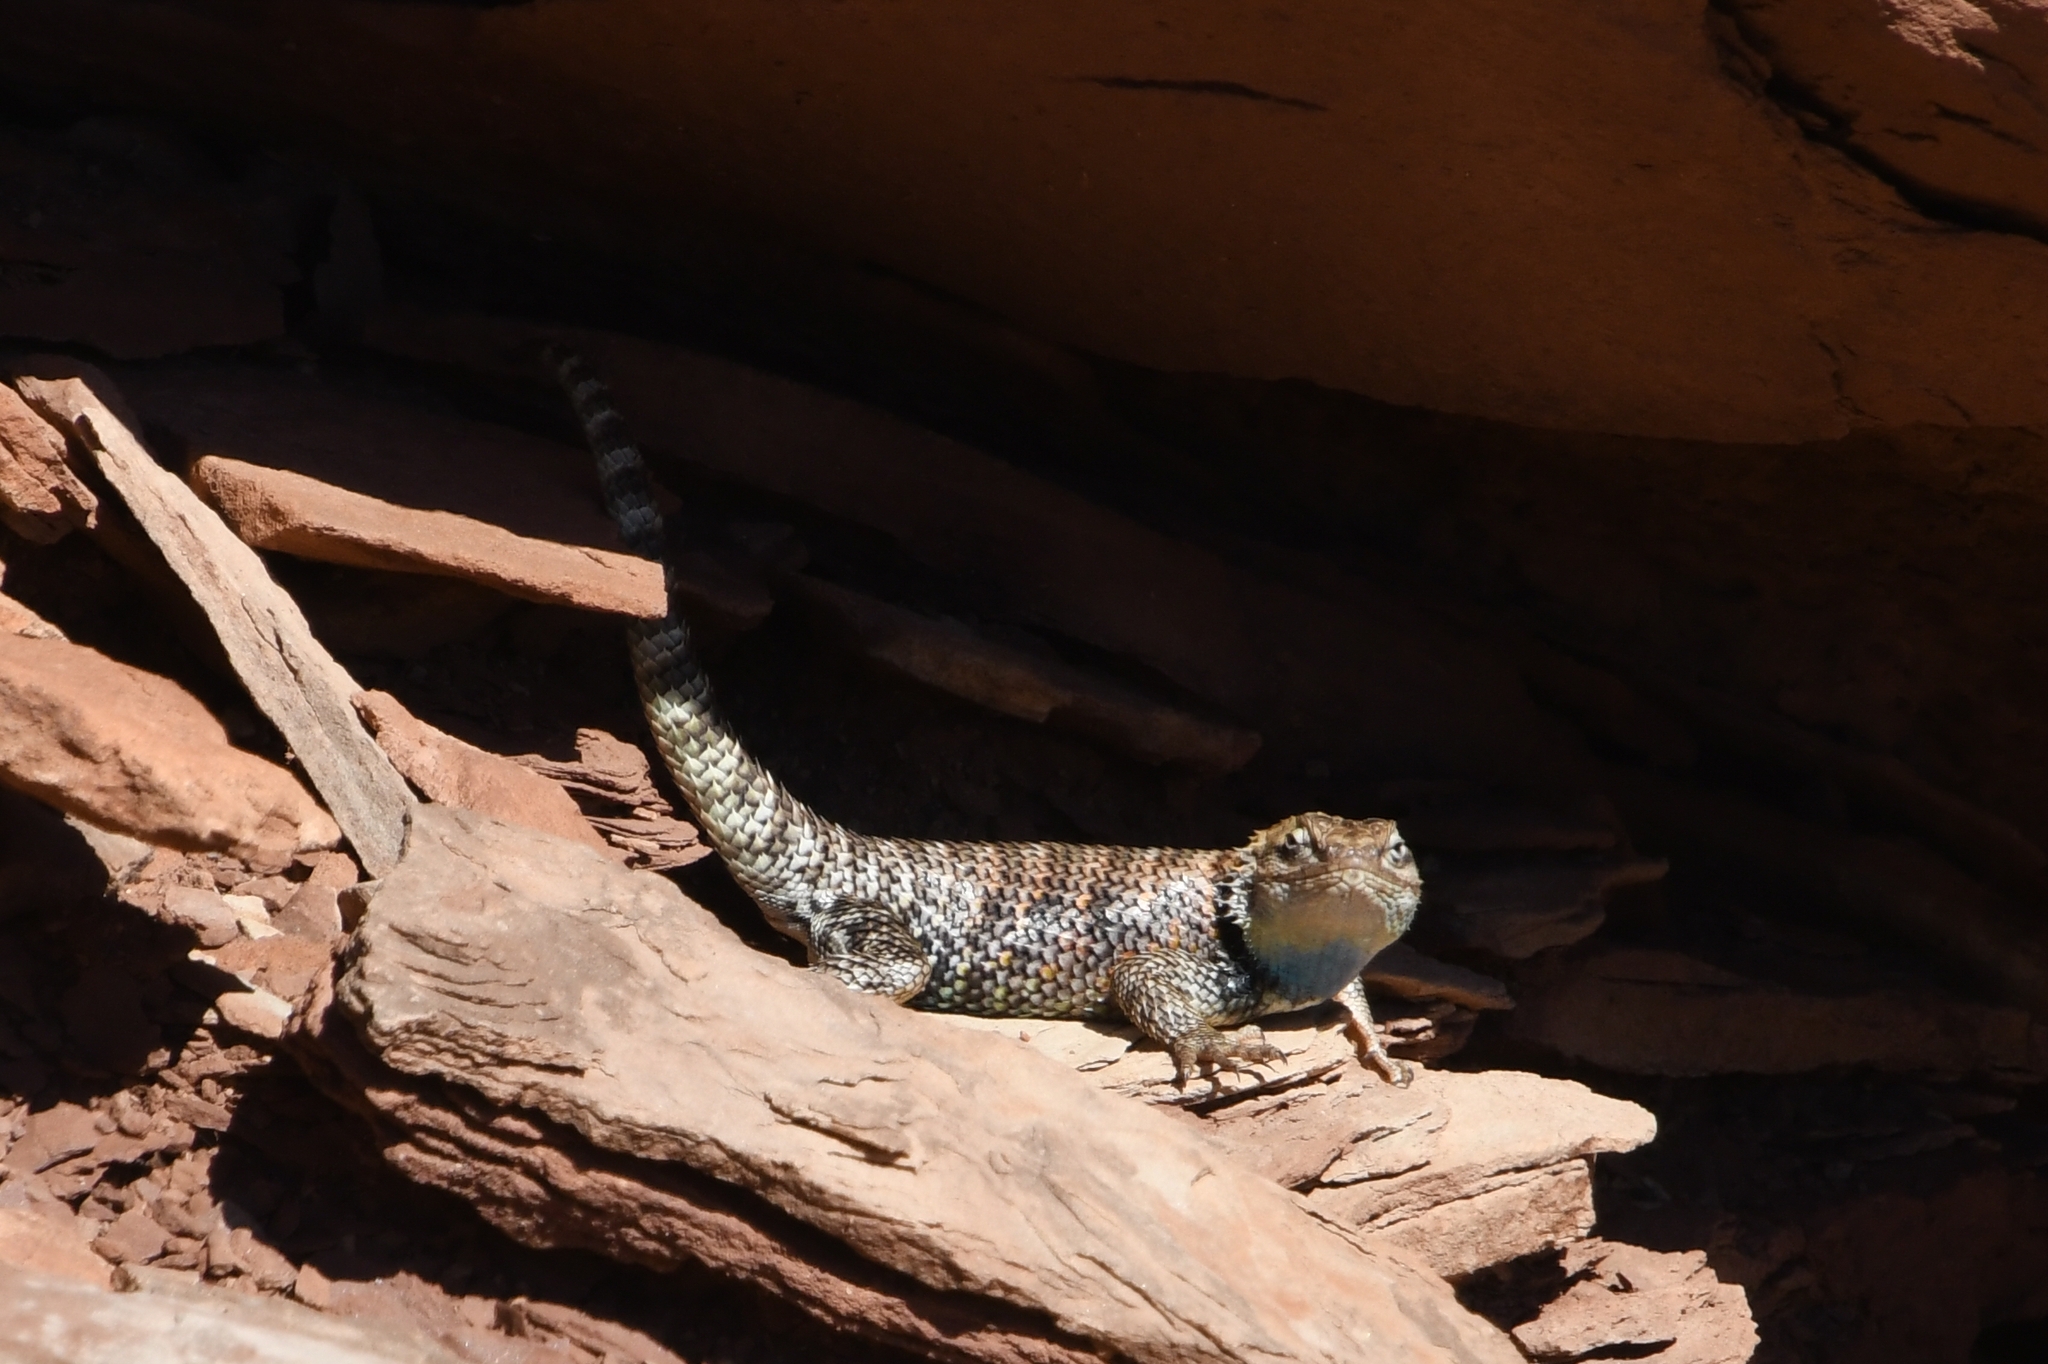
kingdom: Animalia
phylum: Chordata
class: Squamata
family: Phrynosomatidae
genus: Sceloporus
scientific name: Sceloporus magister
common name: Desert spiny lizard
